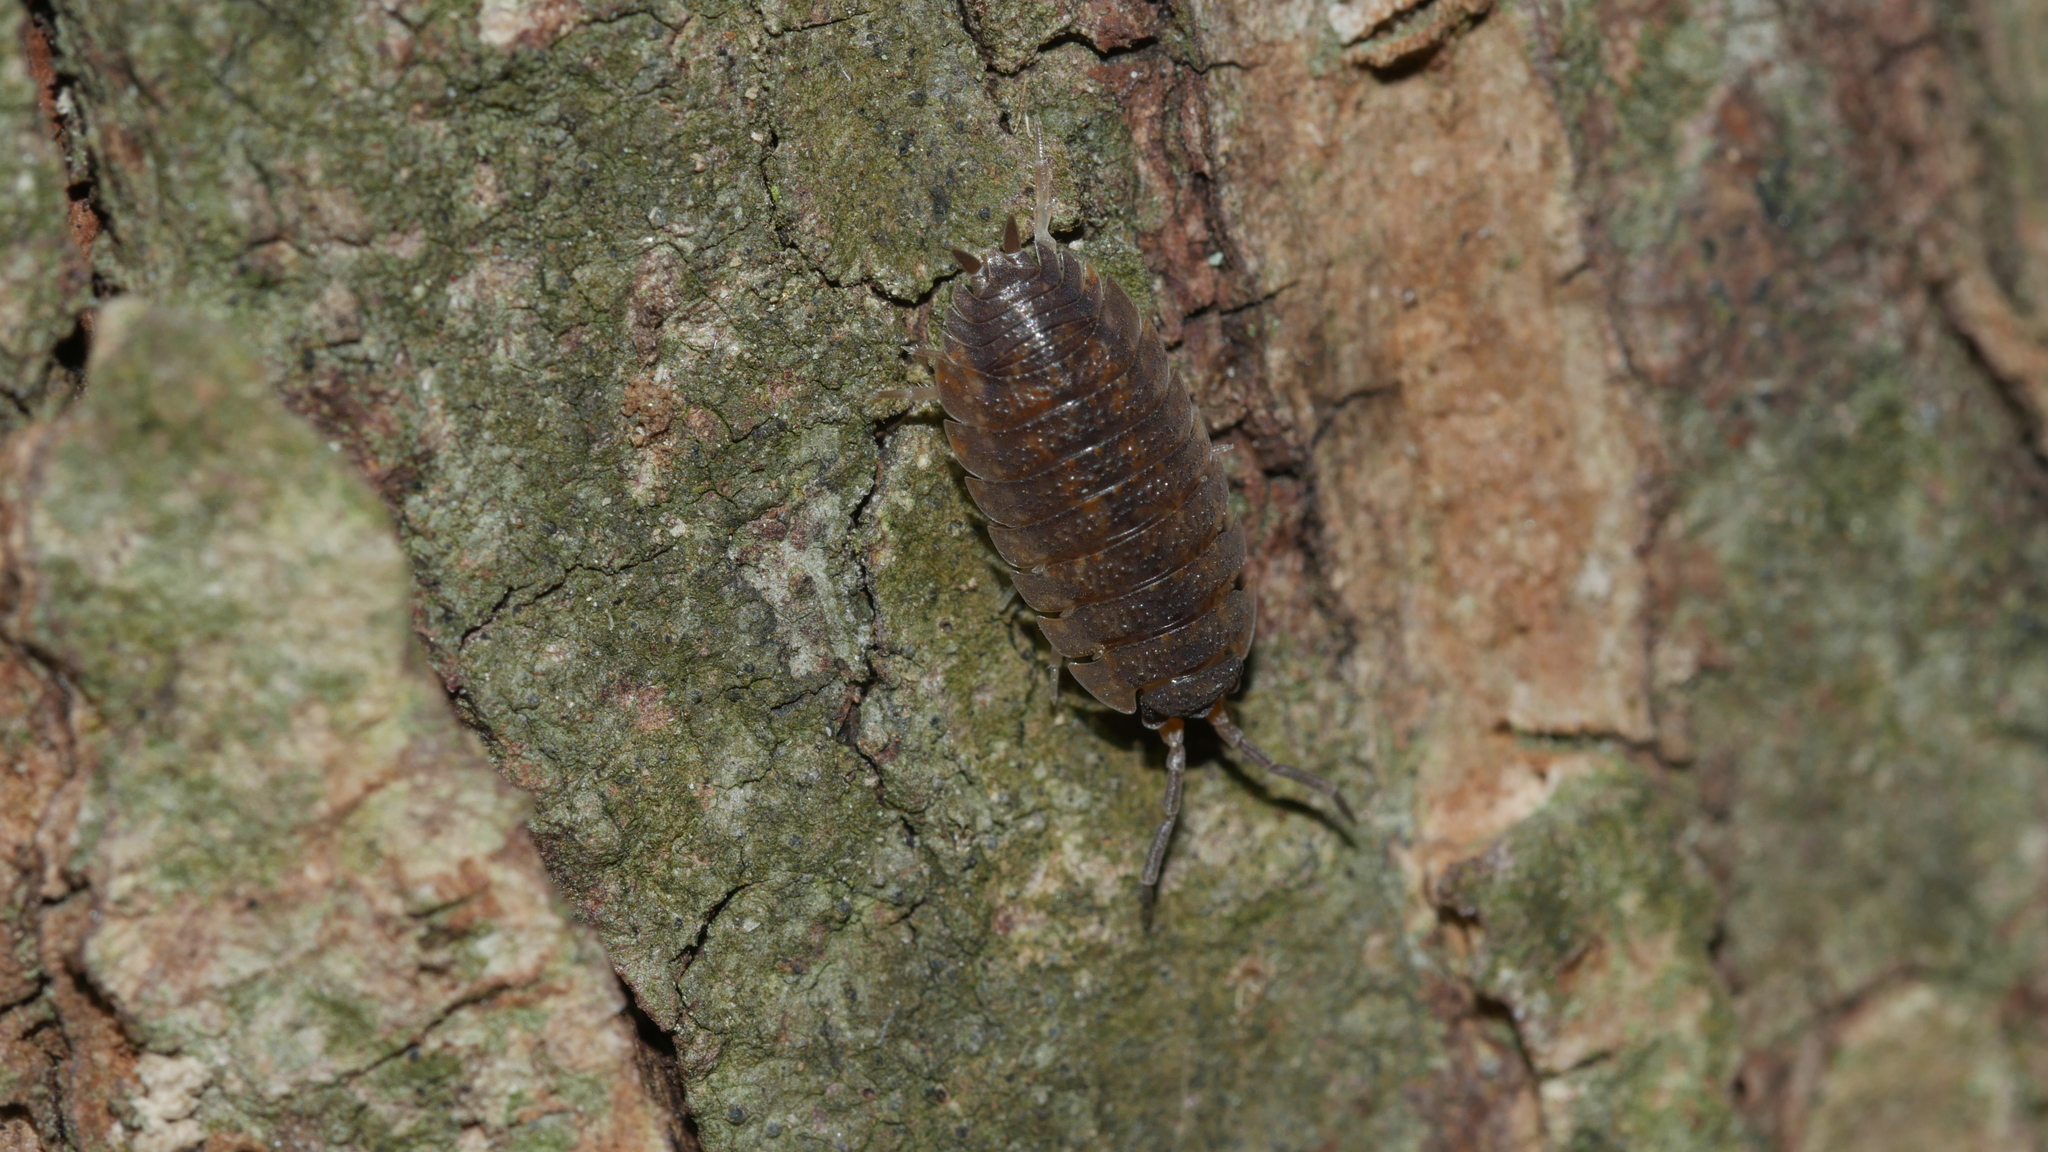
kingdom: Animalia
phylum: Arthropoda
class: Malacostraca
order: Isopoda
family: Porcellionidae
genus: Porcellio
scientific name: Porcellio scaber
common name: Common rough woodlouse
